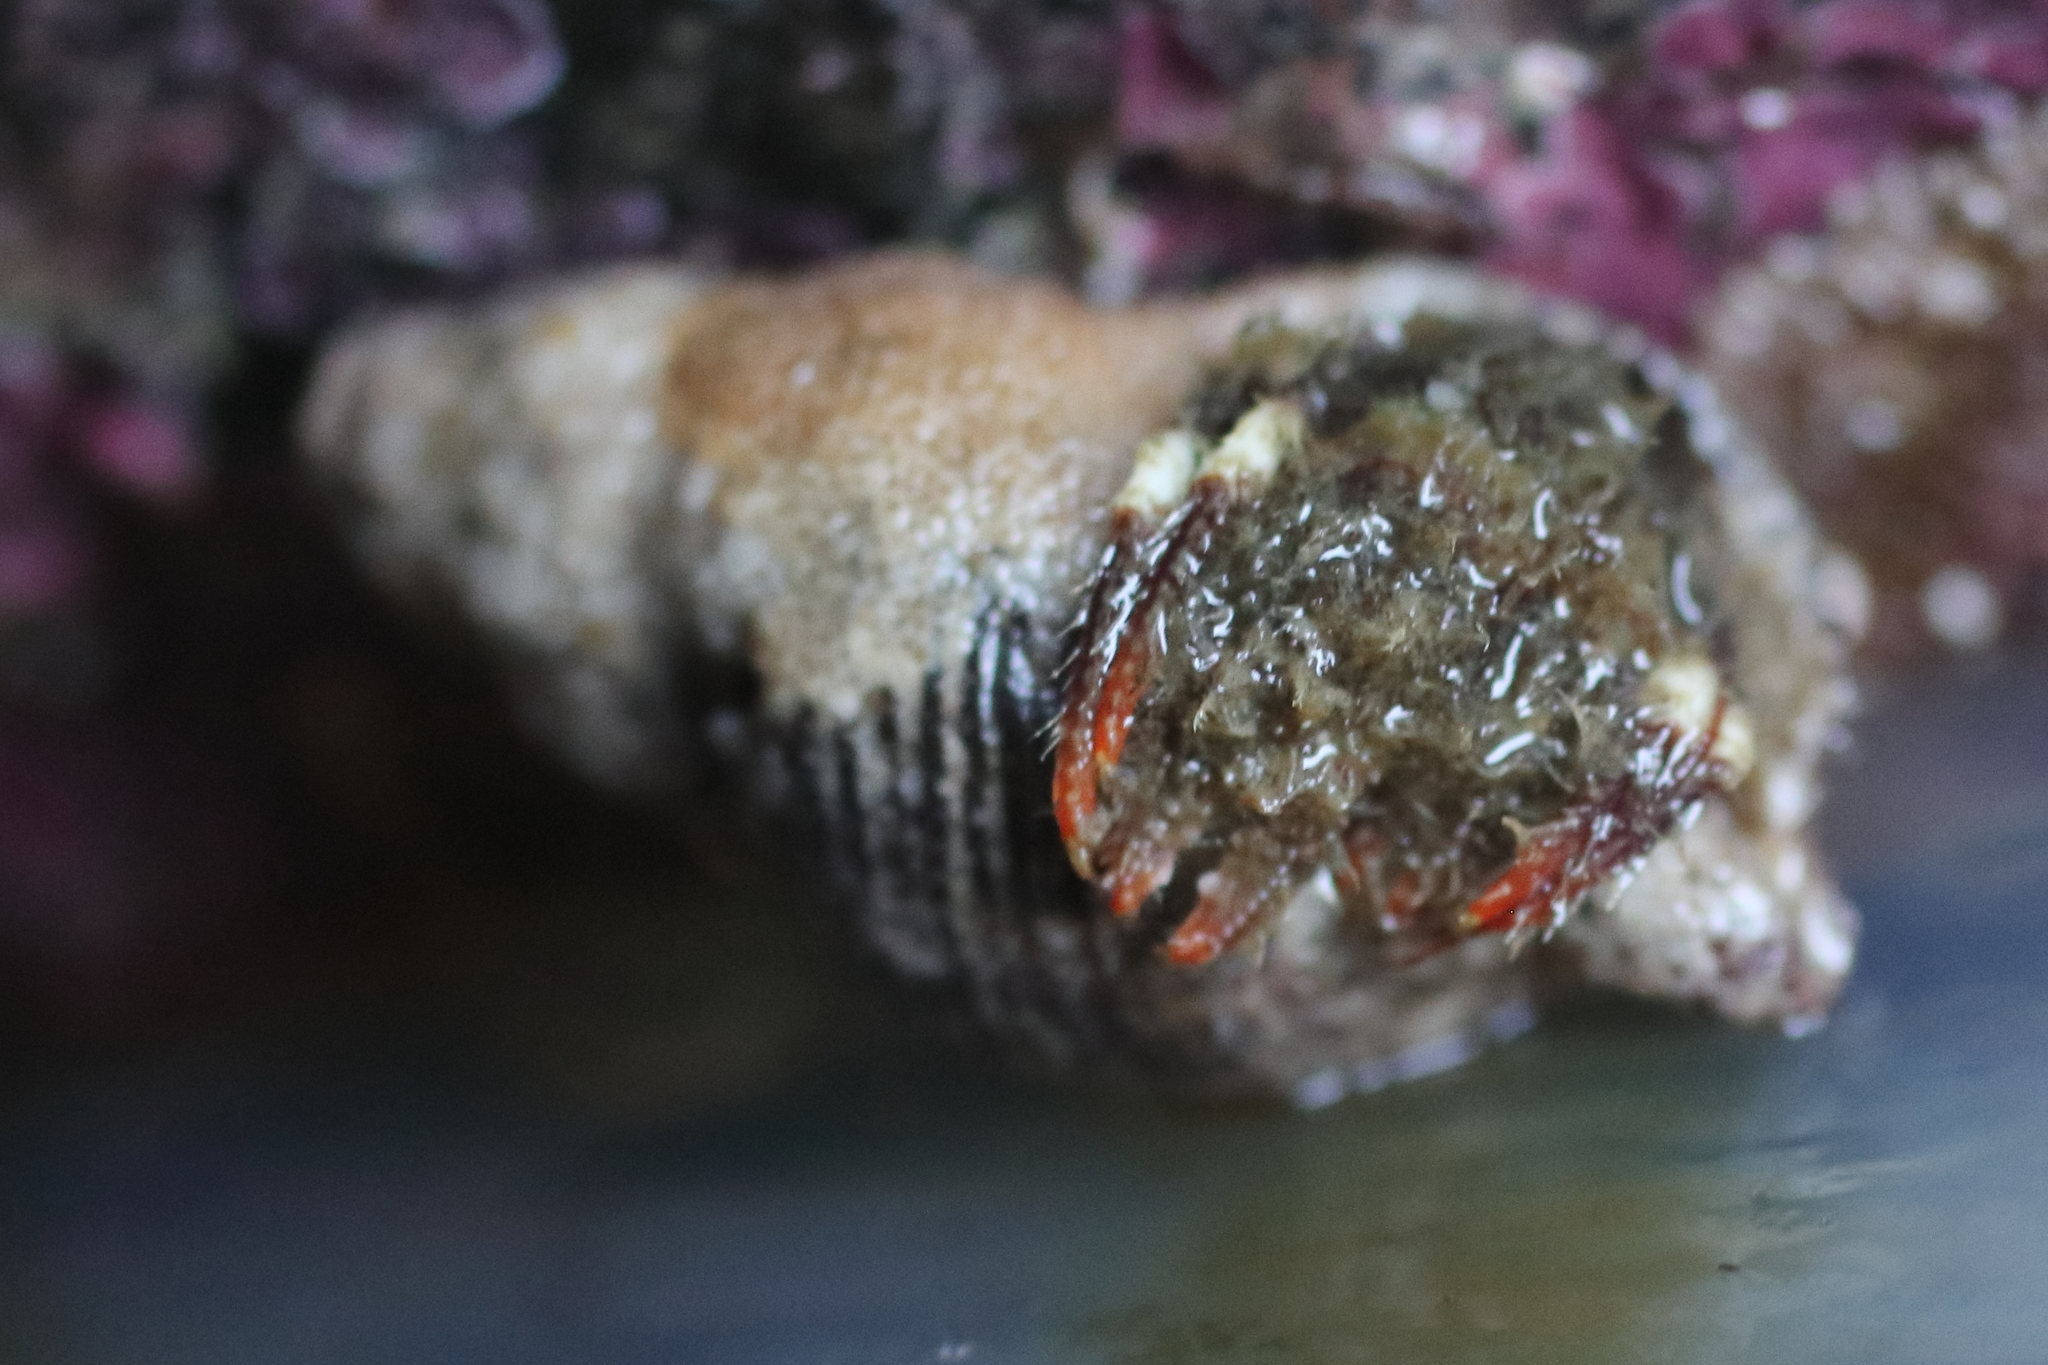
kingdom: Animalia
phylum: Arthropoda
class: Malacostraca
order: Decapoda
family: Paguridae
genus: Pagurus
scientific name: Pagurus caurinus
